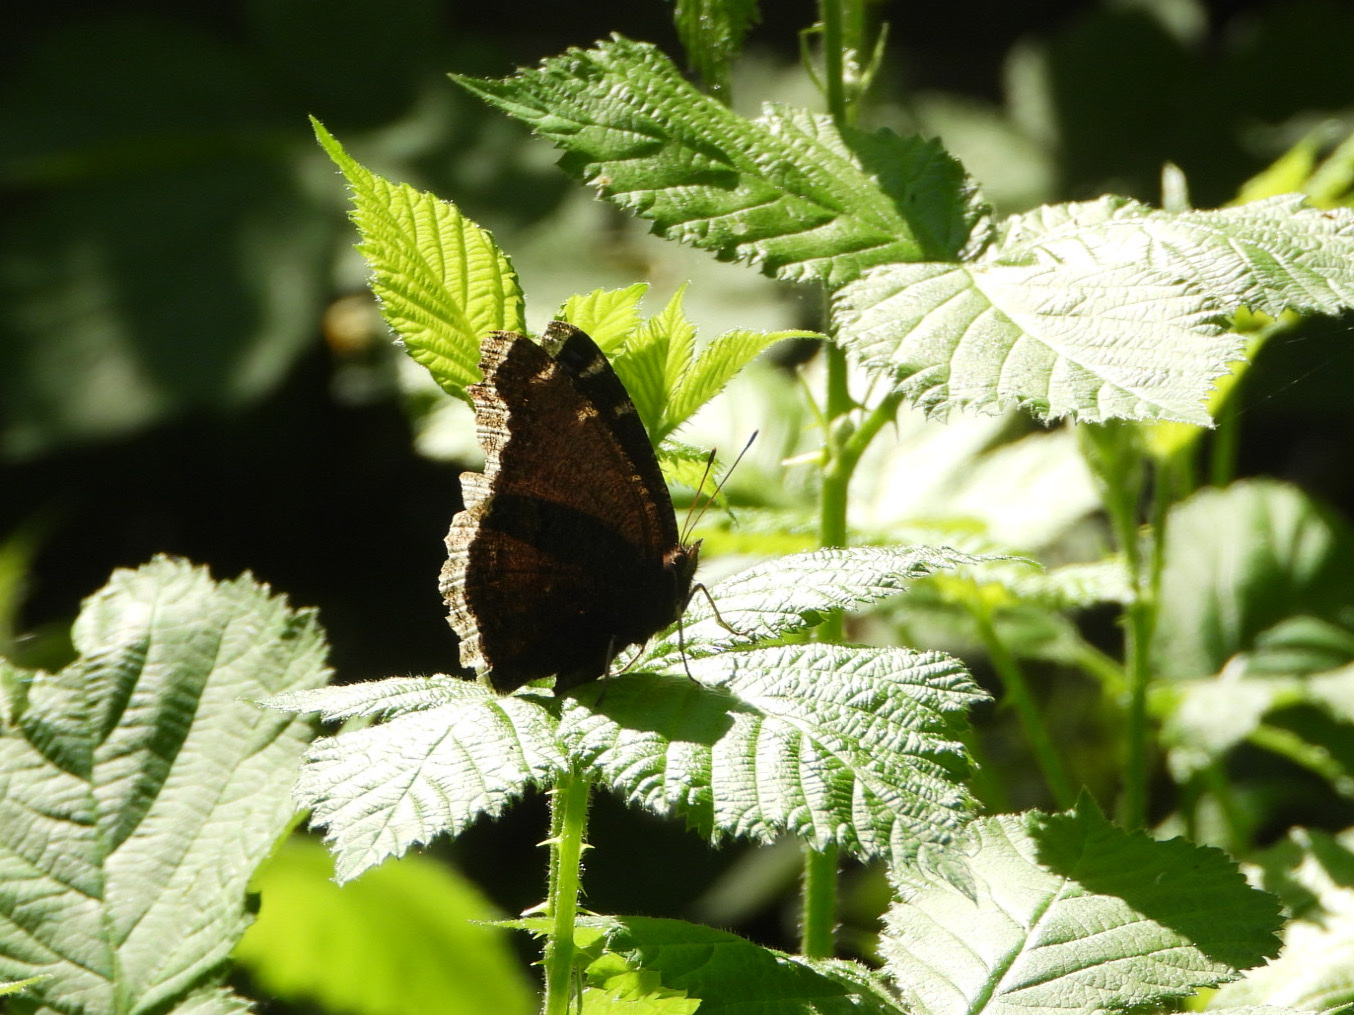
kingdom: Animalia
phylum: Arthropoda
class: Insecta
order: Lepidoptera
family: Nymphalidae
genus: Nymphalis
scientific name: Nymphalis antiopa
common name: Camberwell beauty
